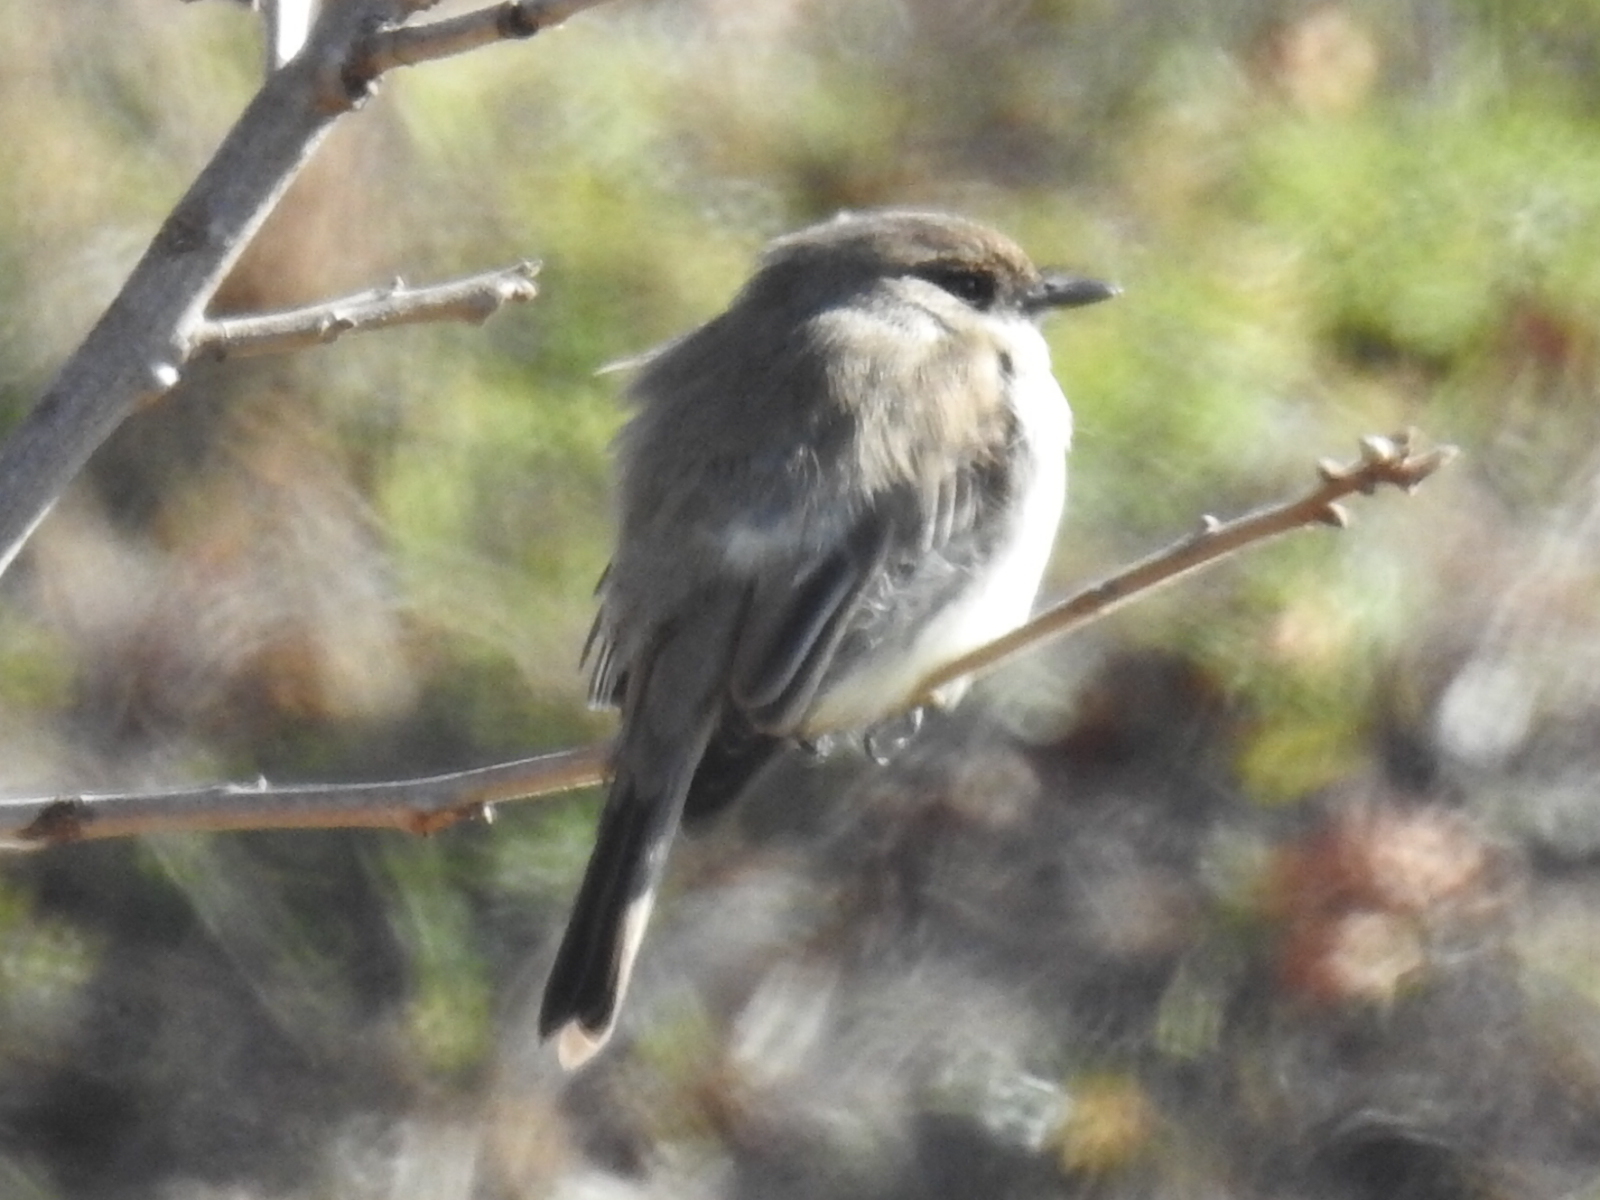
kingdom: Animalia
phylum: Chordata
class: Aves
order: Passeriformes
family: Tyrannidae
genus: Sayornis
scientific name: Sayornis phoebe
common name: Eastern phoebe
